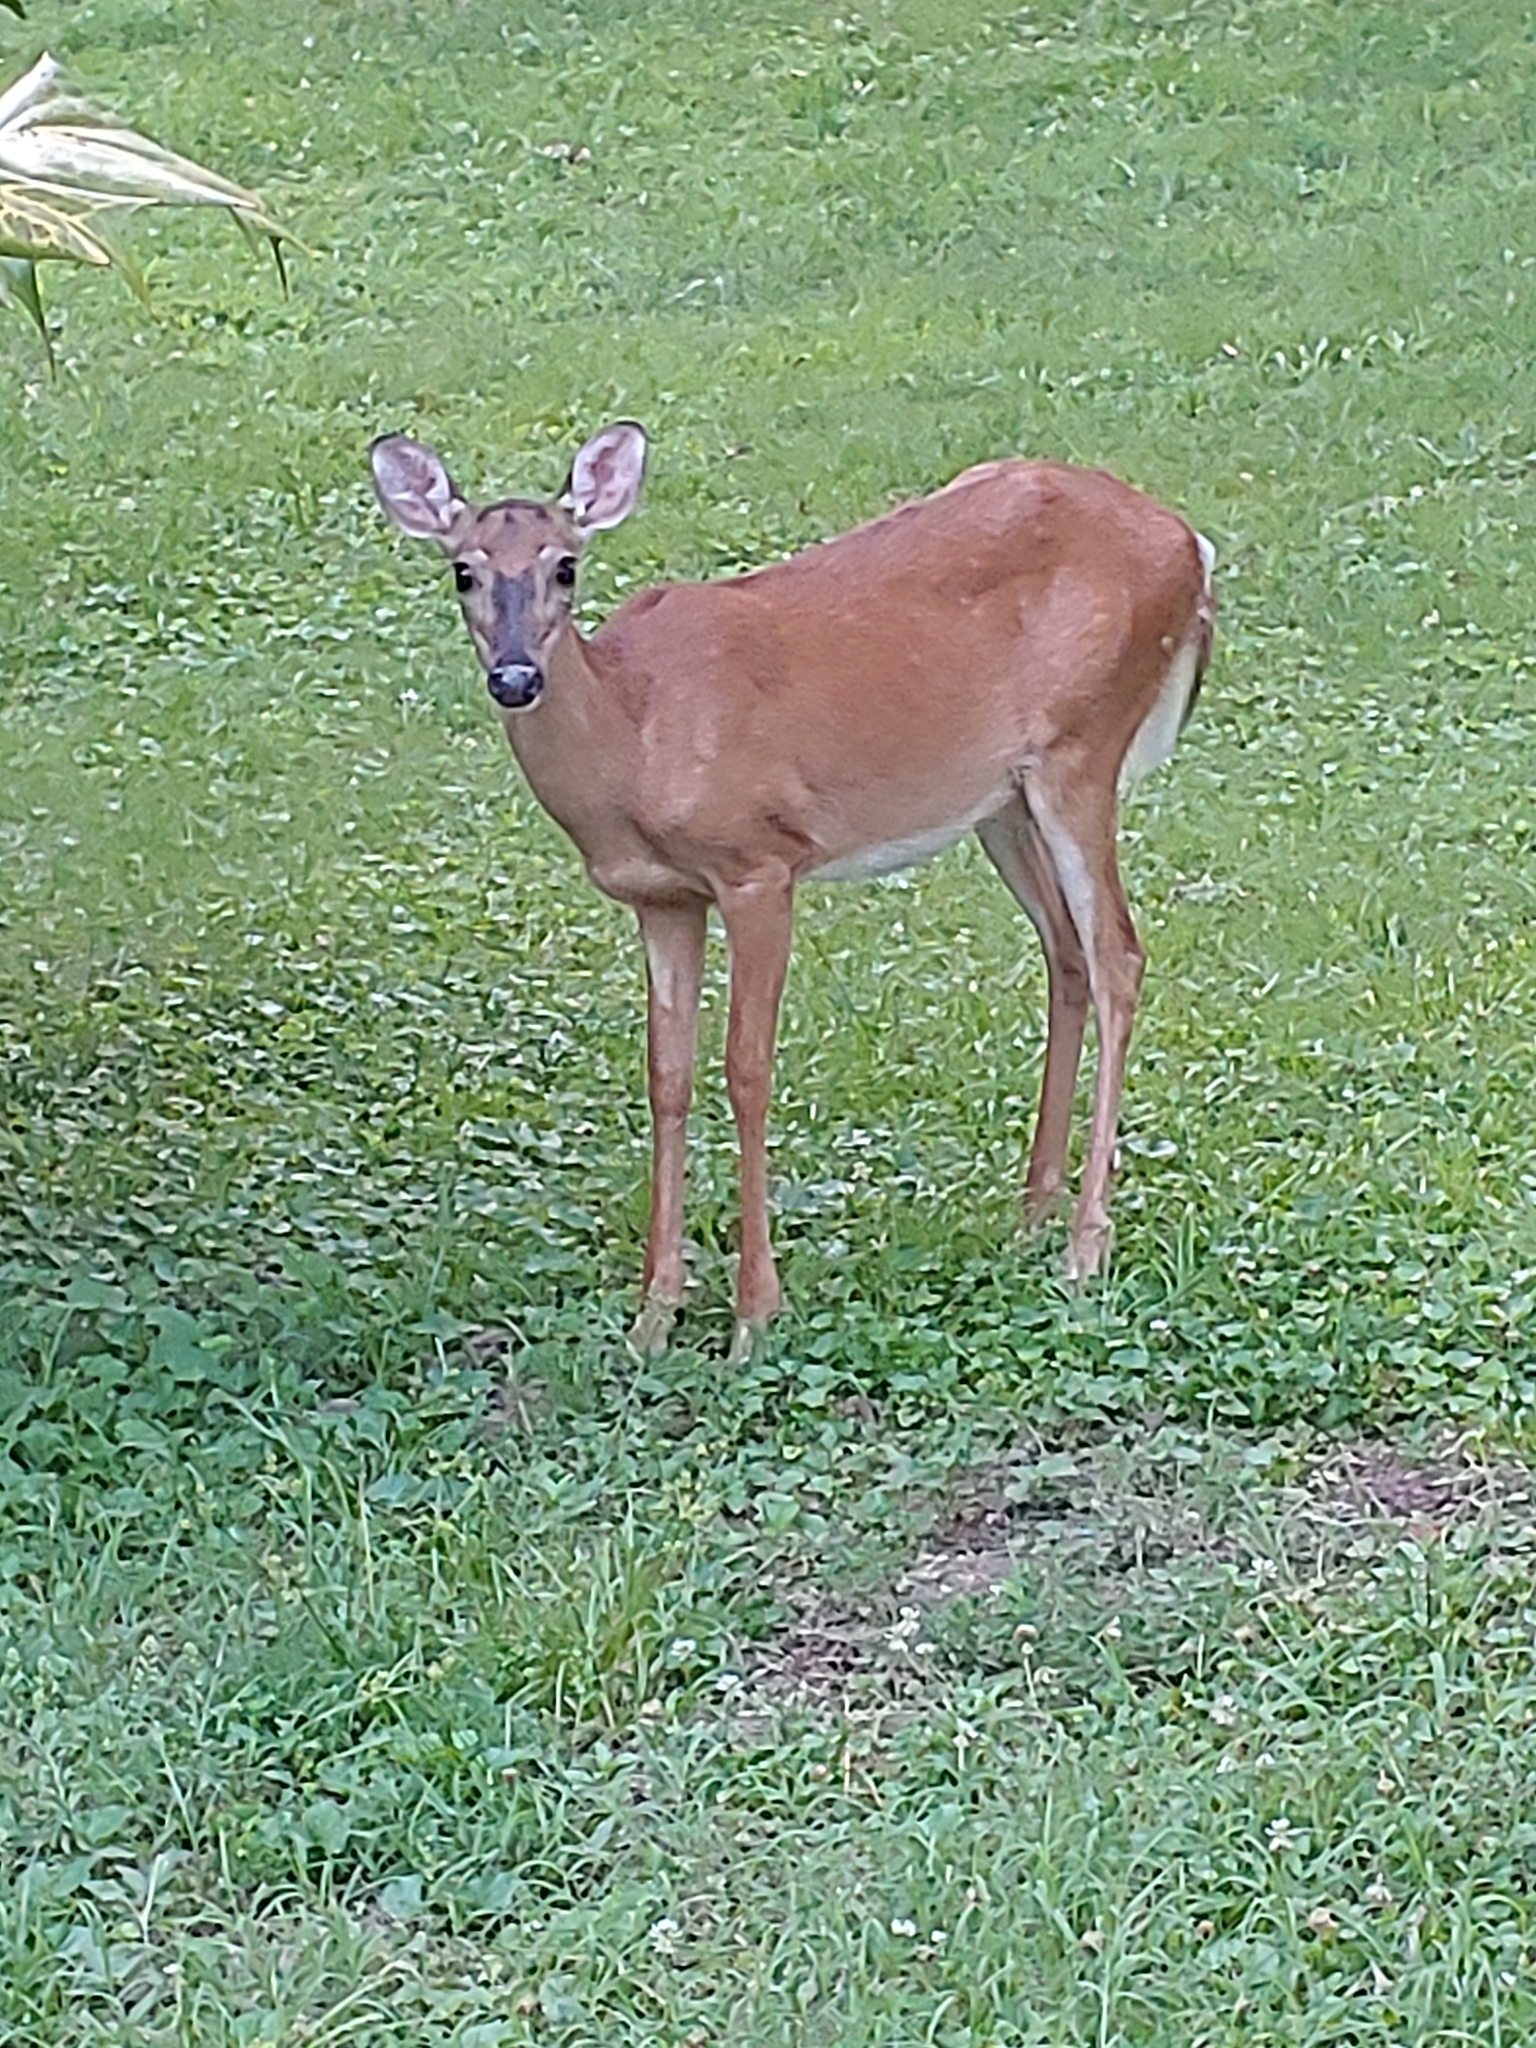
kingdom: Animalia
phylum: Chordata
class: Mammalia
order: Artiodactyla
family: Cervidae
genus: Odocoileus
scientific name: Odocoileus virginianus
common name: White-tailed deer
